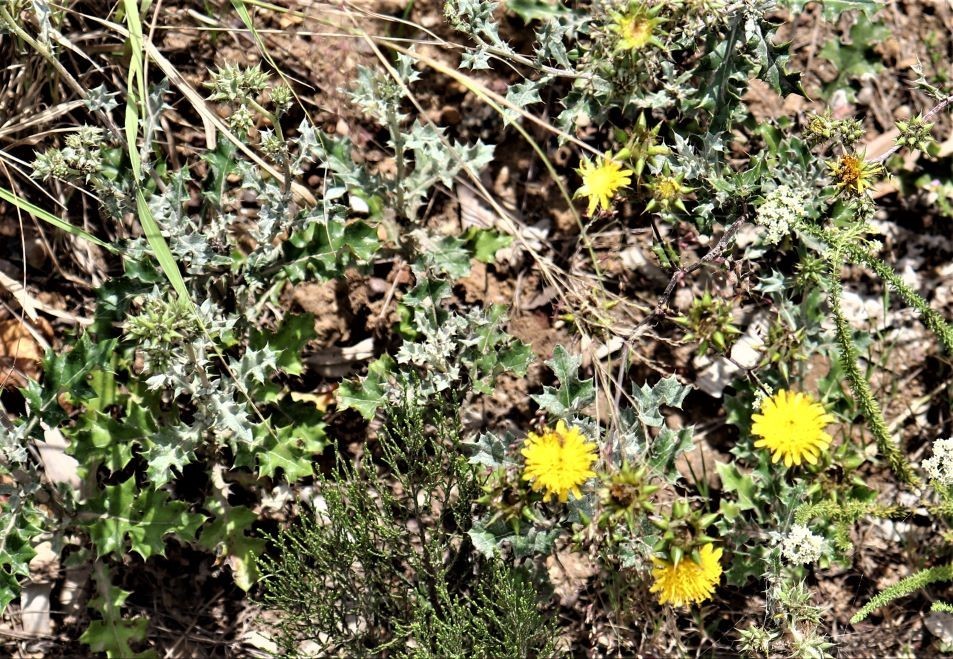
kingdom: Plantae
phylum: Tracheophyta
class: Magnoliopsida
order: Asterales
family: Asteraceae
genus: Berkheya
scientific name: Berkheya heterophylla
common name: Prickly gousblom
